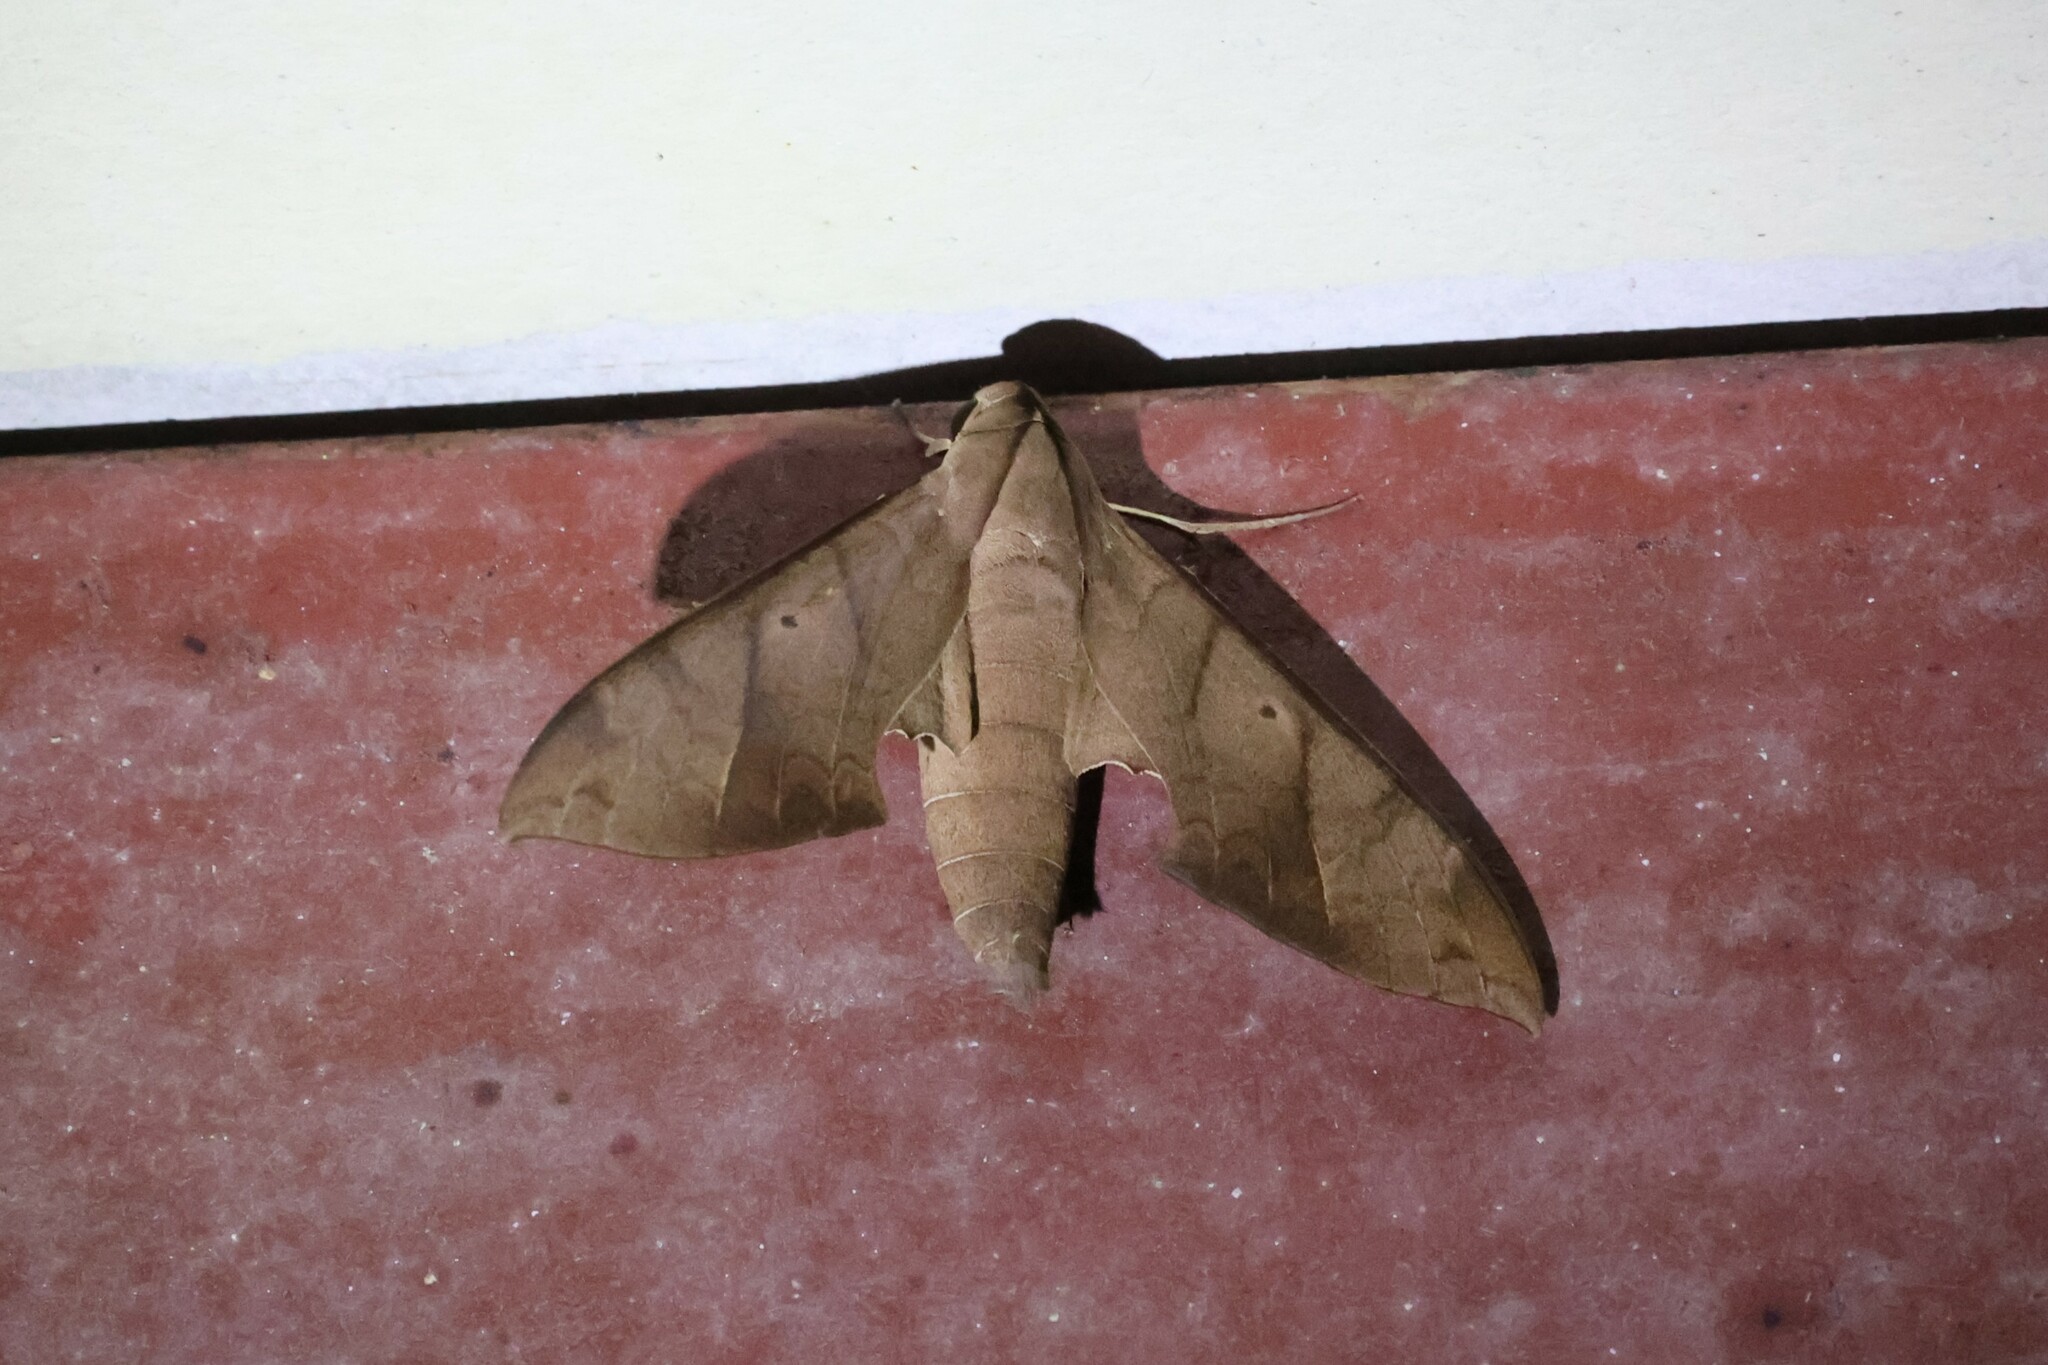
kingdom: Animalia
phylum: Arthropoda
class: Insecta
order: Lepidoptera
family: Sphingidae
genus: Pachylia
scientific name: Pachylia darceta
